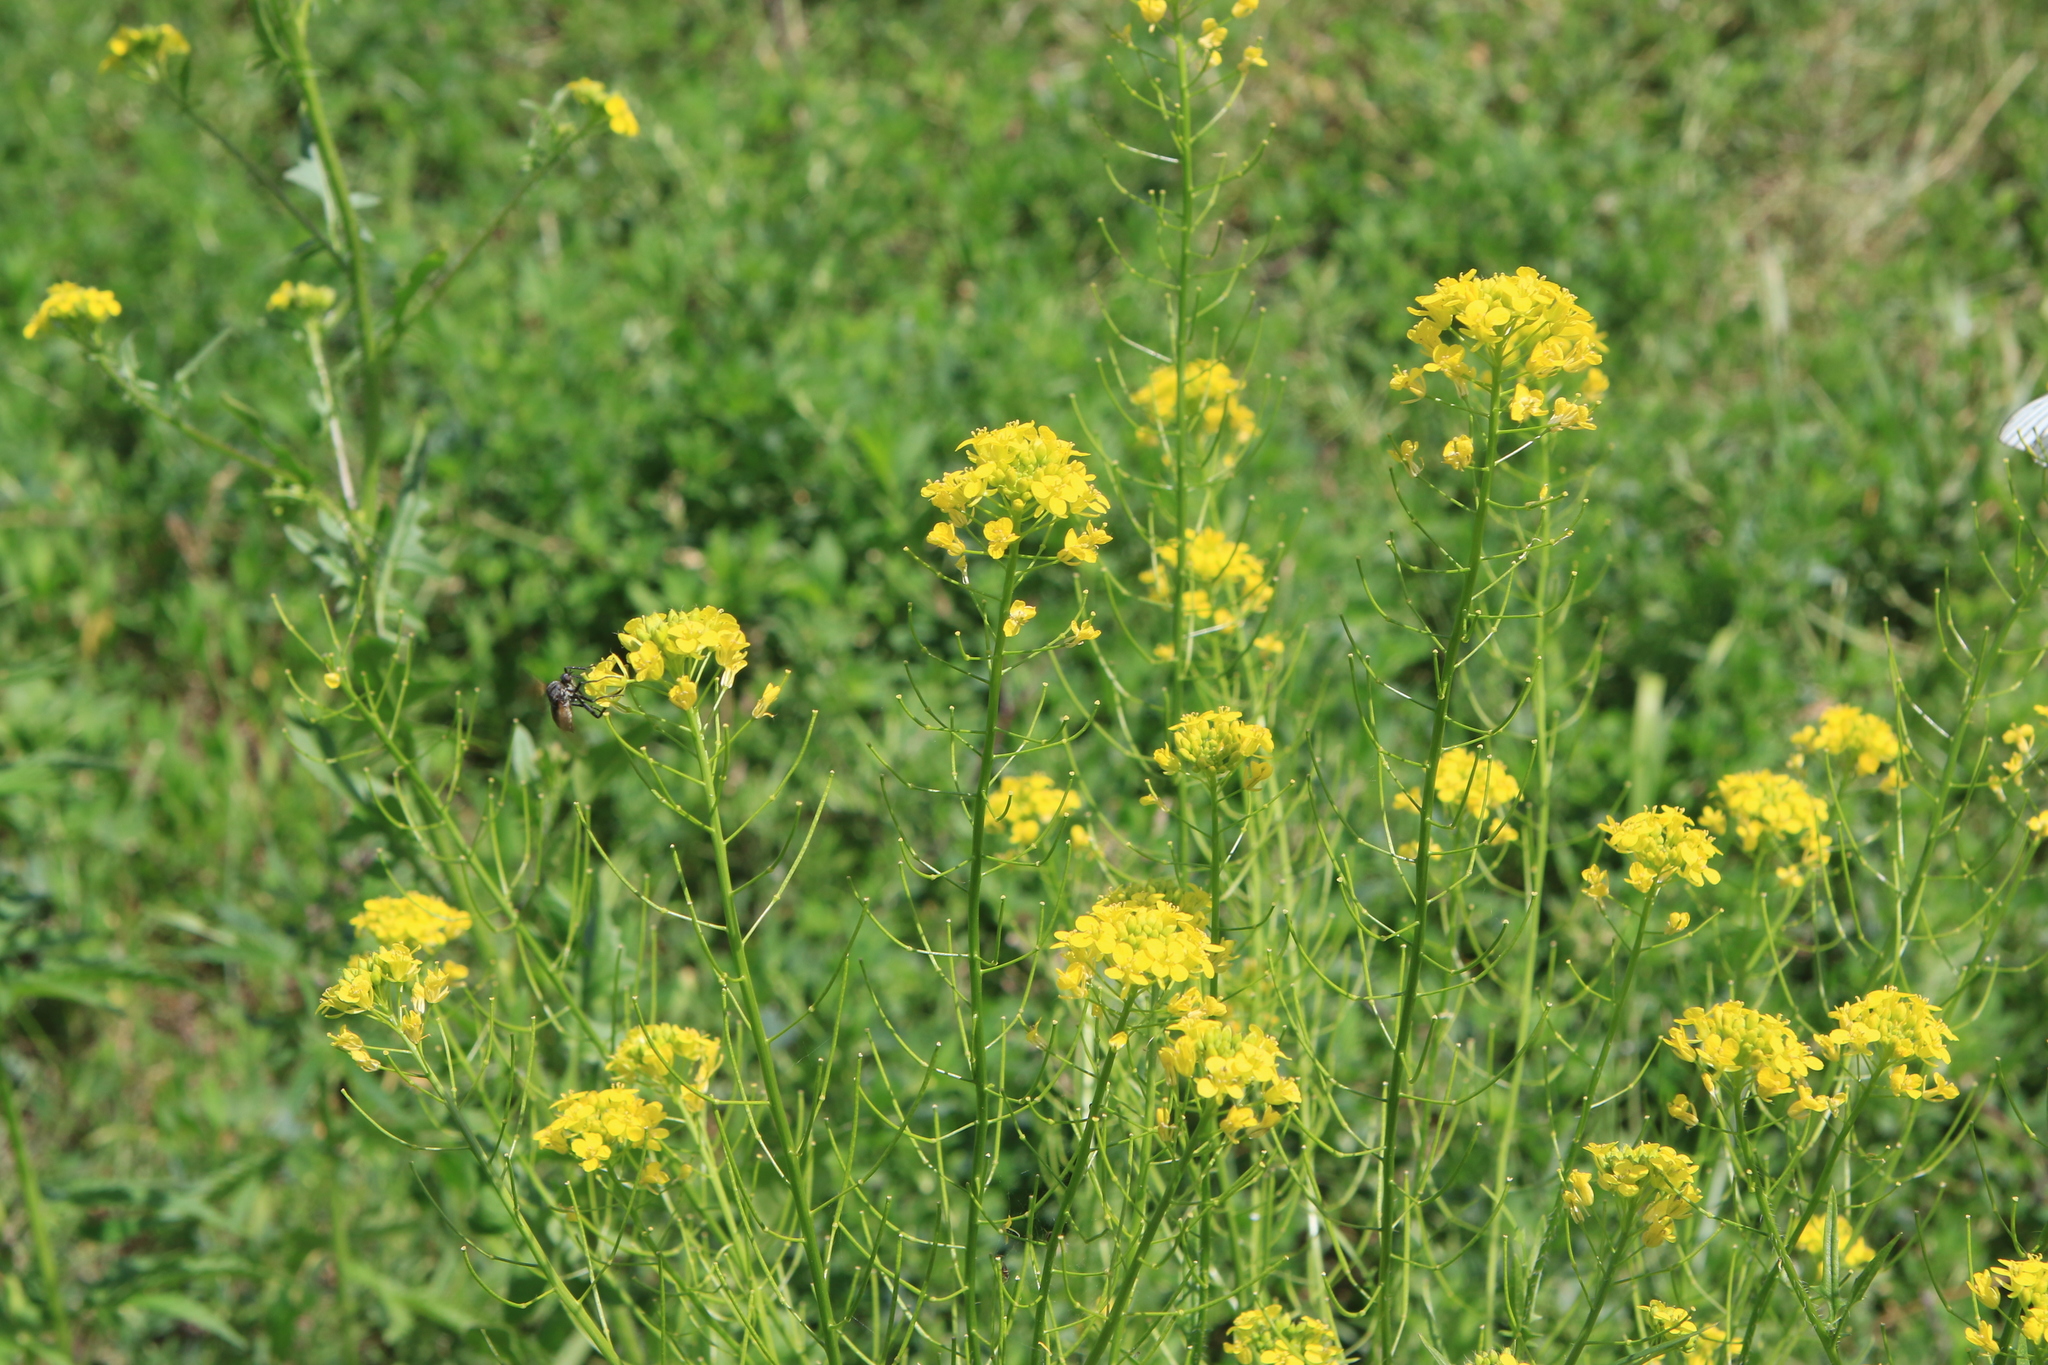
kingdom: Plantae
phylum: Tracheophyta
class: Magnoliopsida
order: Brassicales
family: Brassicaceae
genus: Sisymbrium
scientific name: Sisymbrium loeselii
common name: False london-rocket
